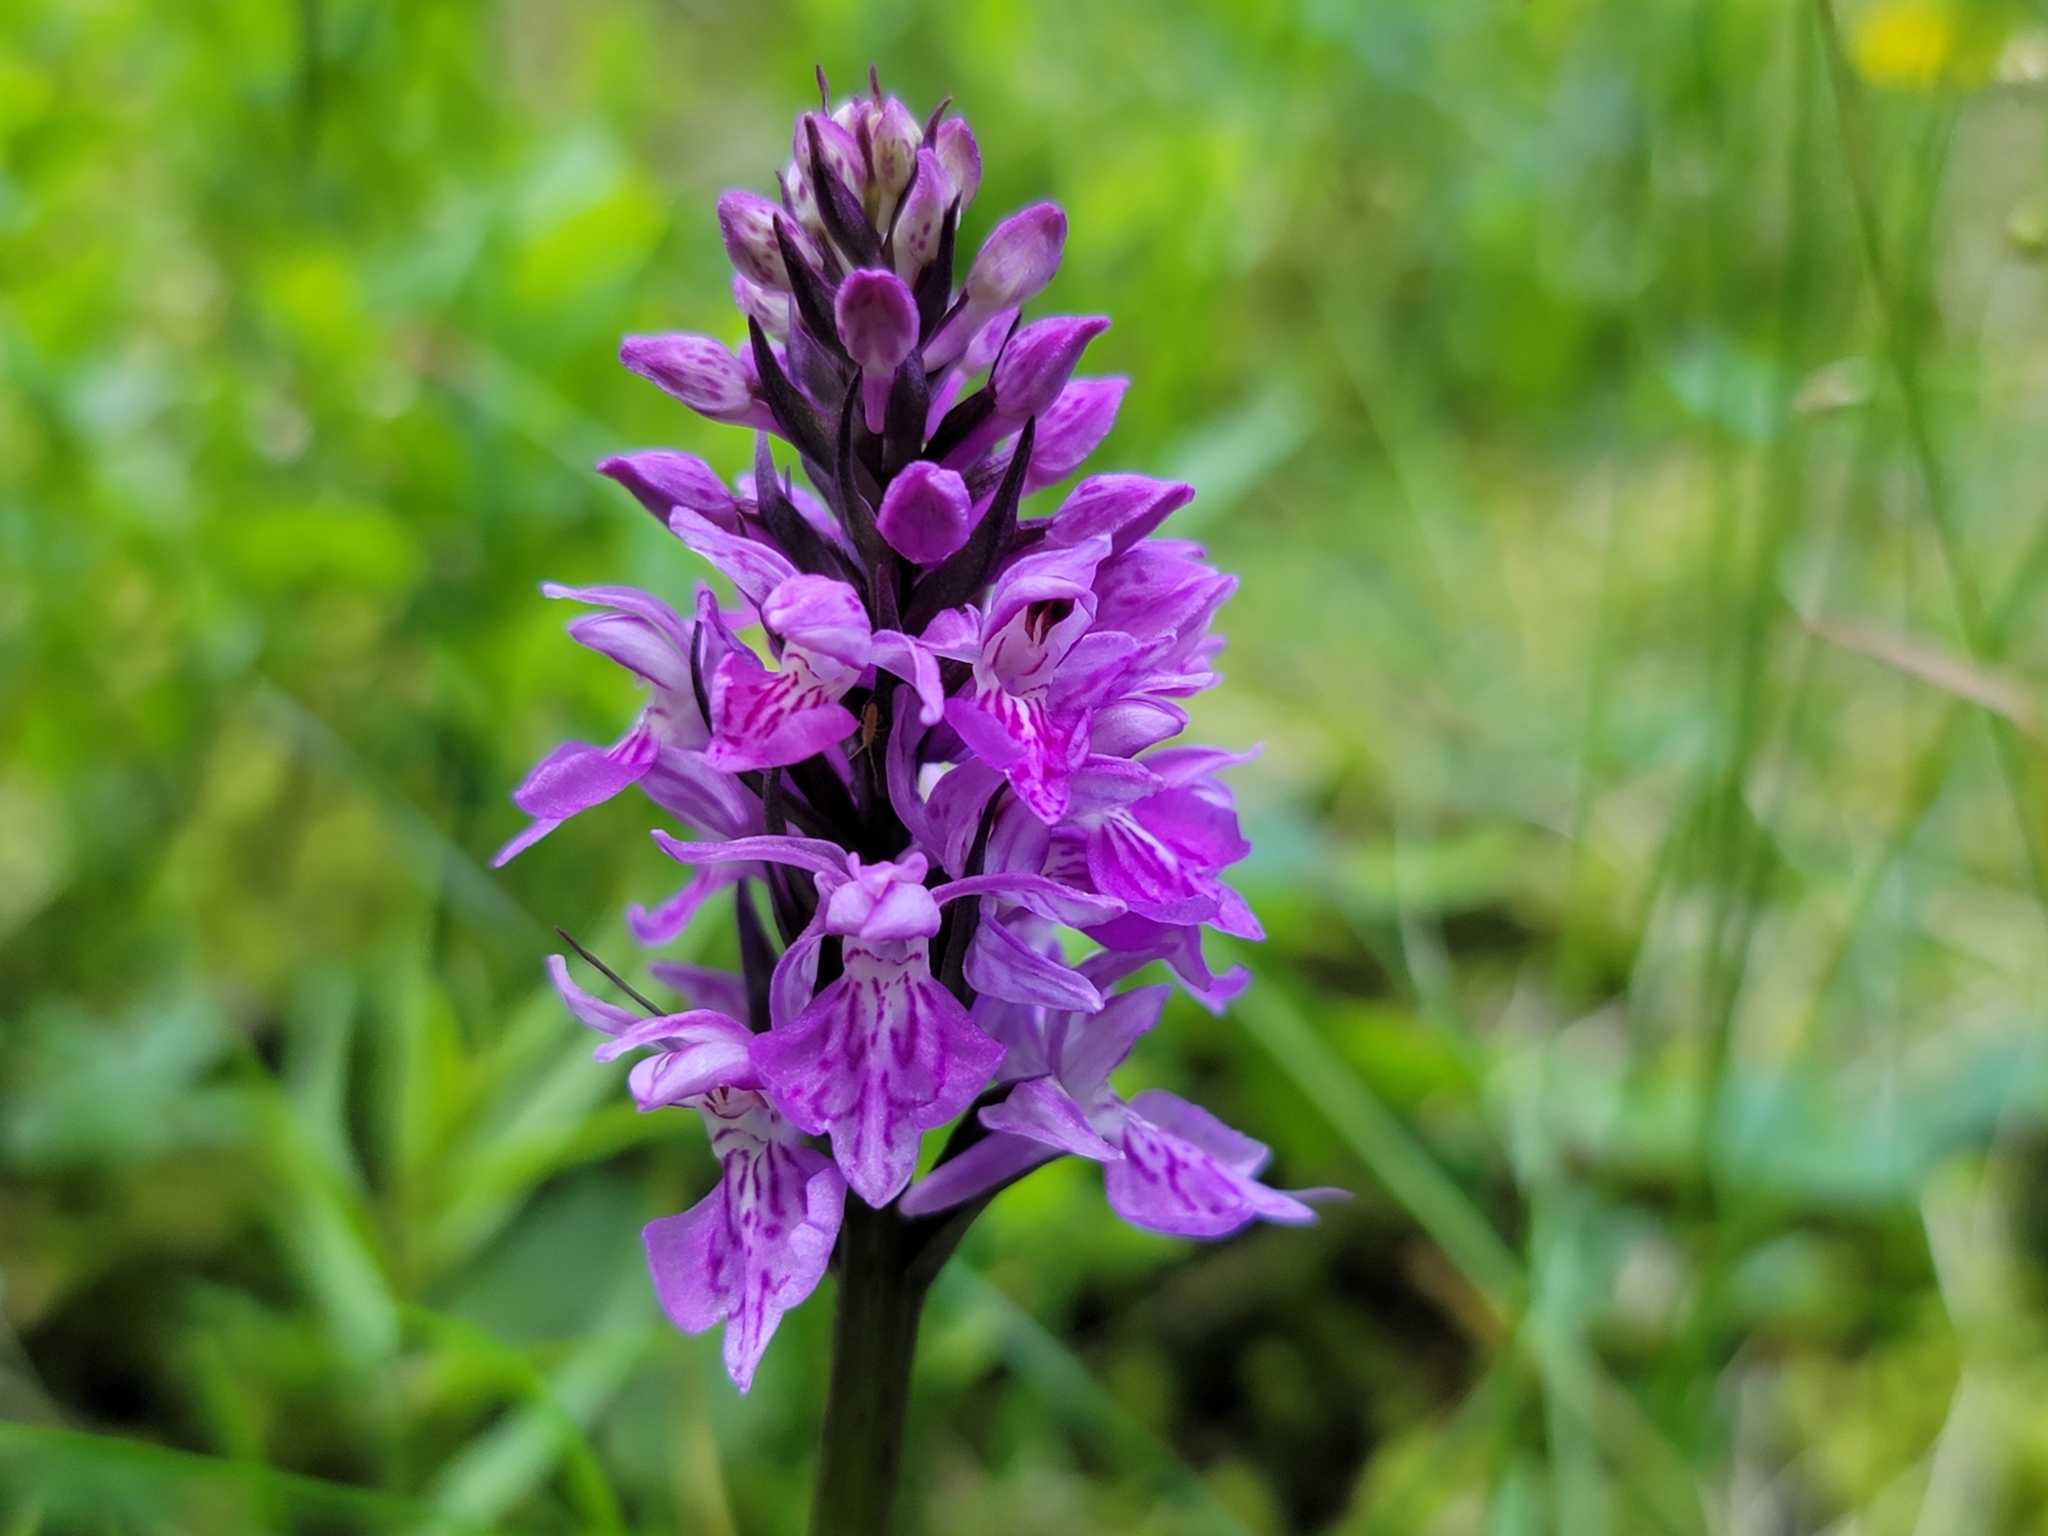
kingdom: Plantae
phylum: Tracheophyta
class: Liliopsida
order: Asparagales
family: Orchidaceae
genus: Dactylorhiza
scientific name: Dactylorhiza maculata
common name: Heath spotted-orchid
